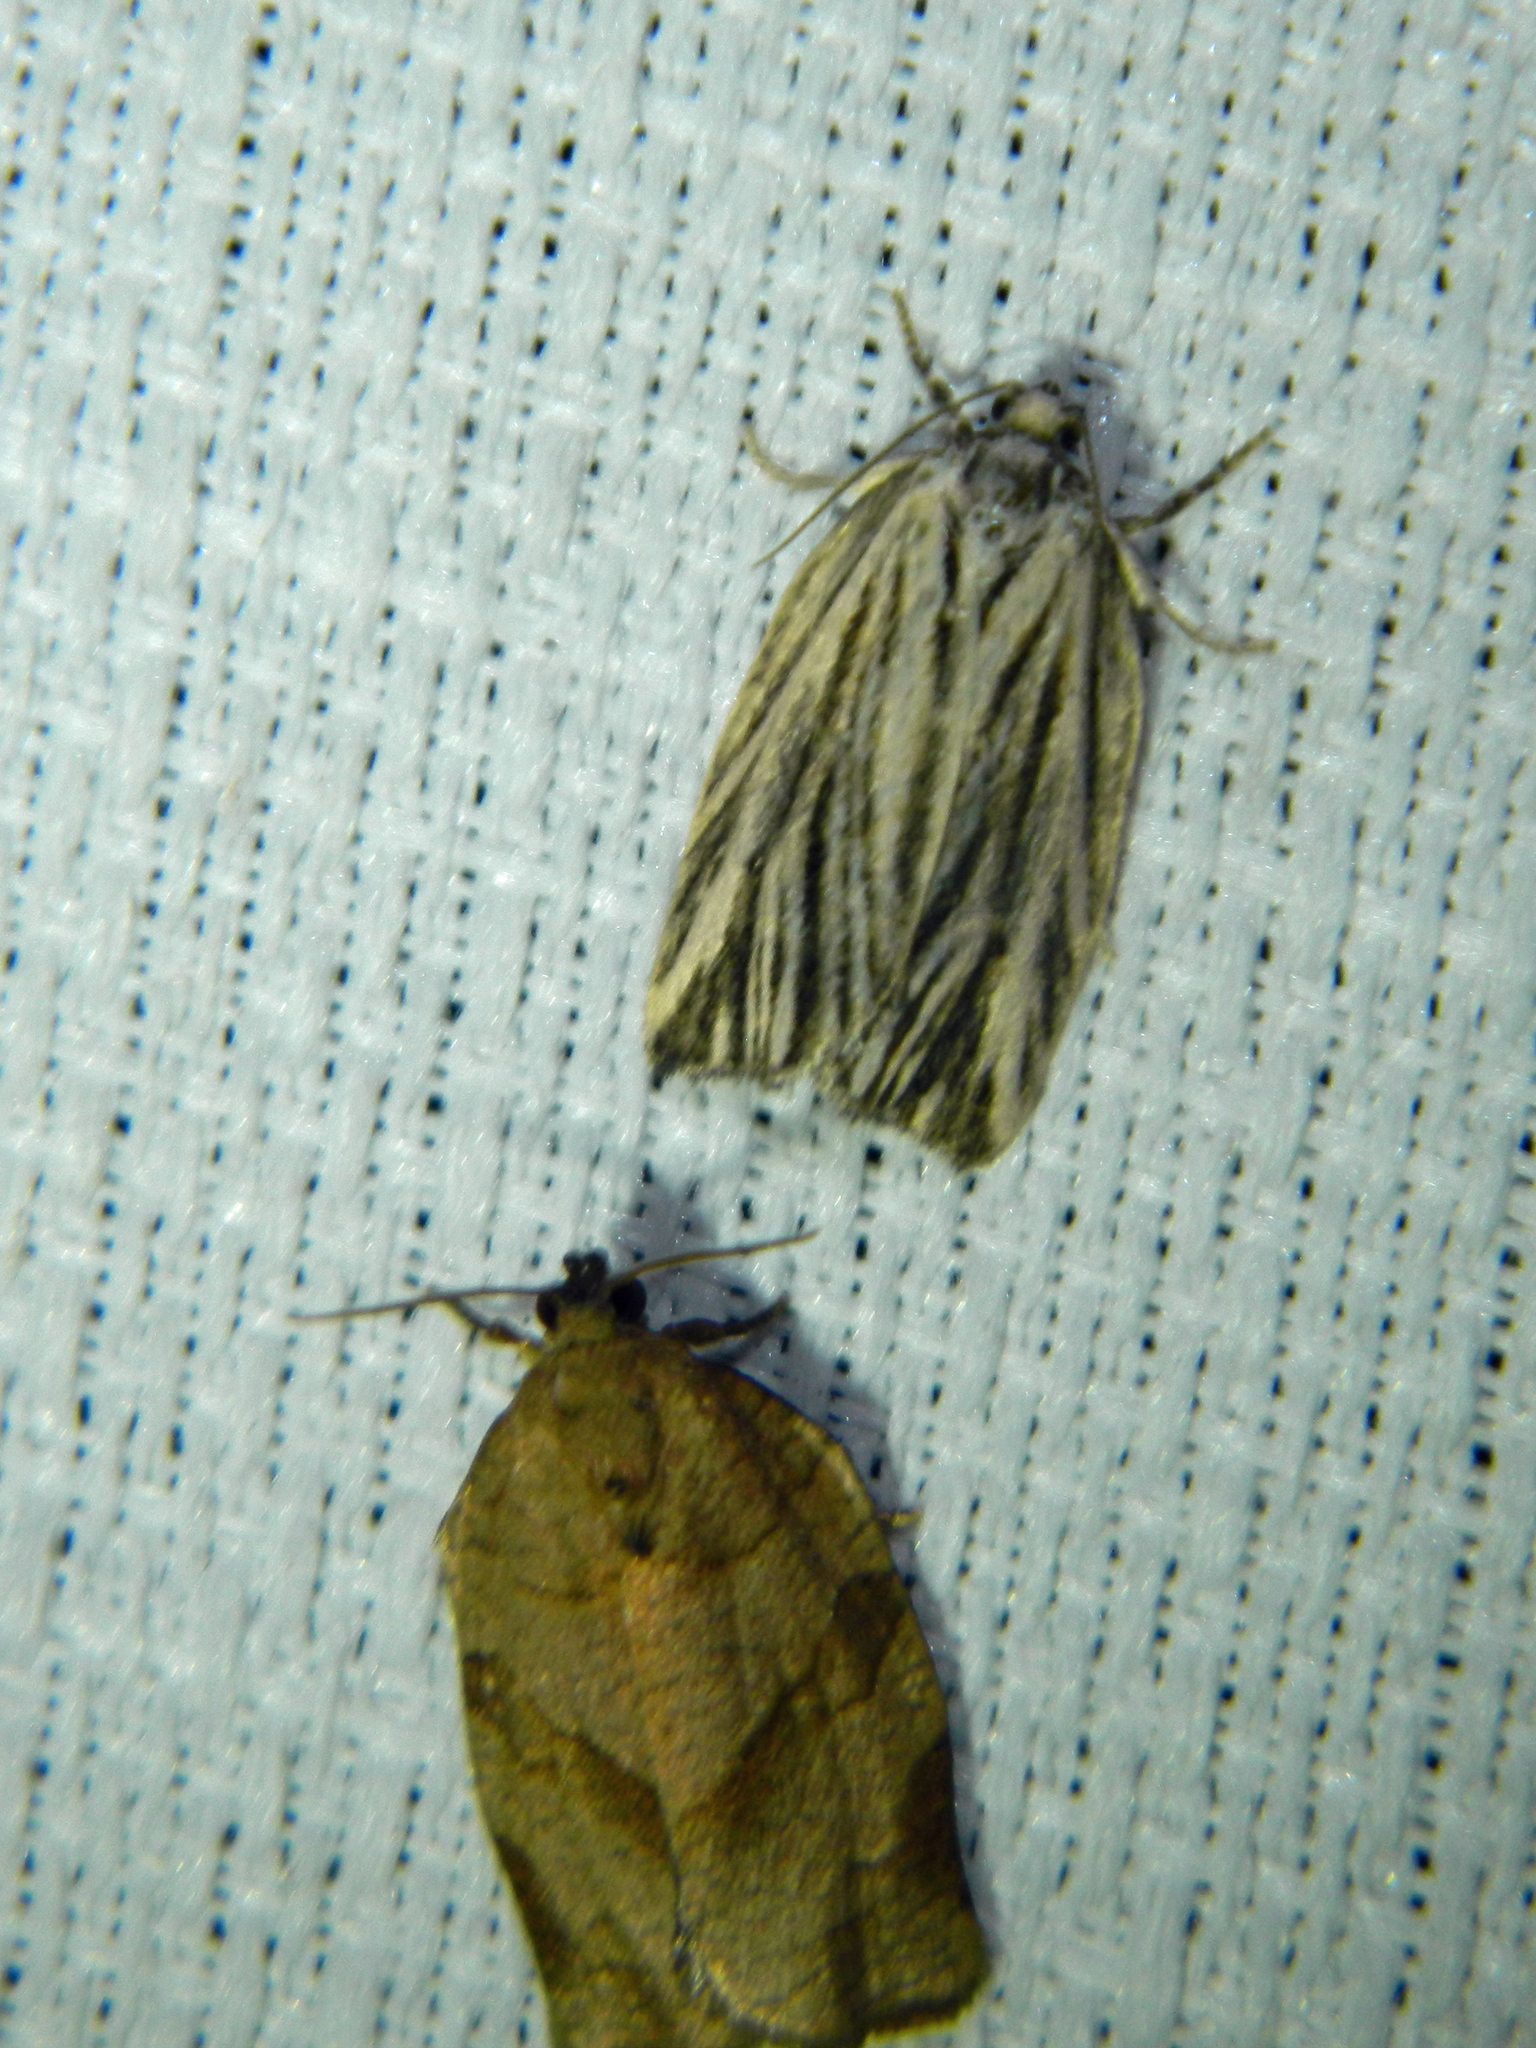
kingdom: Animalia
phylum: Arthropoda
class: Insecta
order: Lepidoptera
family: Tortricidae
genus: Archips
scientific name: Archips strianus
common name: Striated tortrix moth
